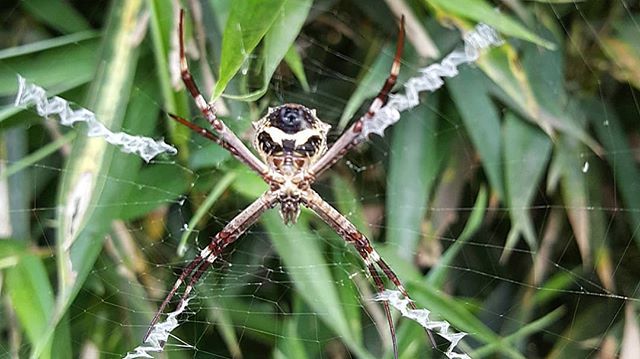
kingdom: Animalia
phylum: Arthropoda
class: Arachnida
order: Araneae
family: Araneidae
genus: Argiope
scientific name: Argiope argentata
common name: Orb weavers
